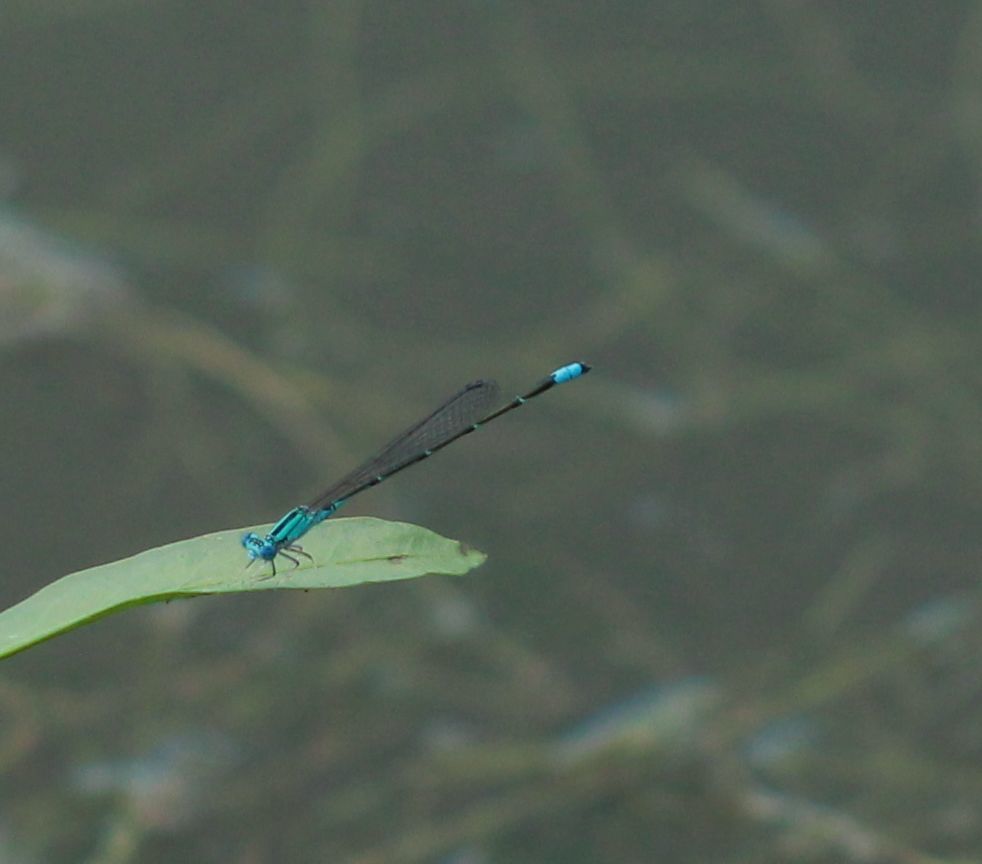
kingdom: Animalia
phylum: Arthropoda
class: Insecta
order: Odonata
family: Coenagrionidae
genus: Enallagma
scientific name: Enallagma traviatum
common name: Slender bluet
